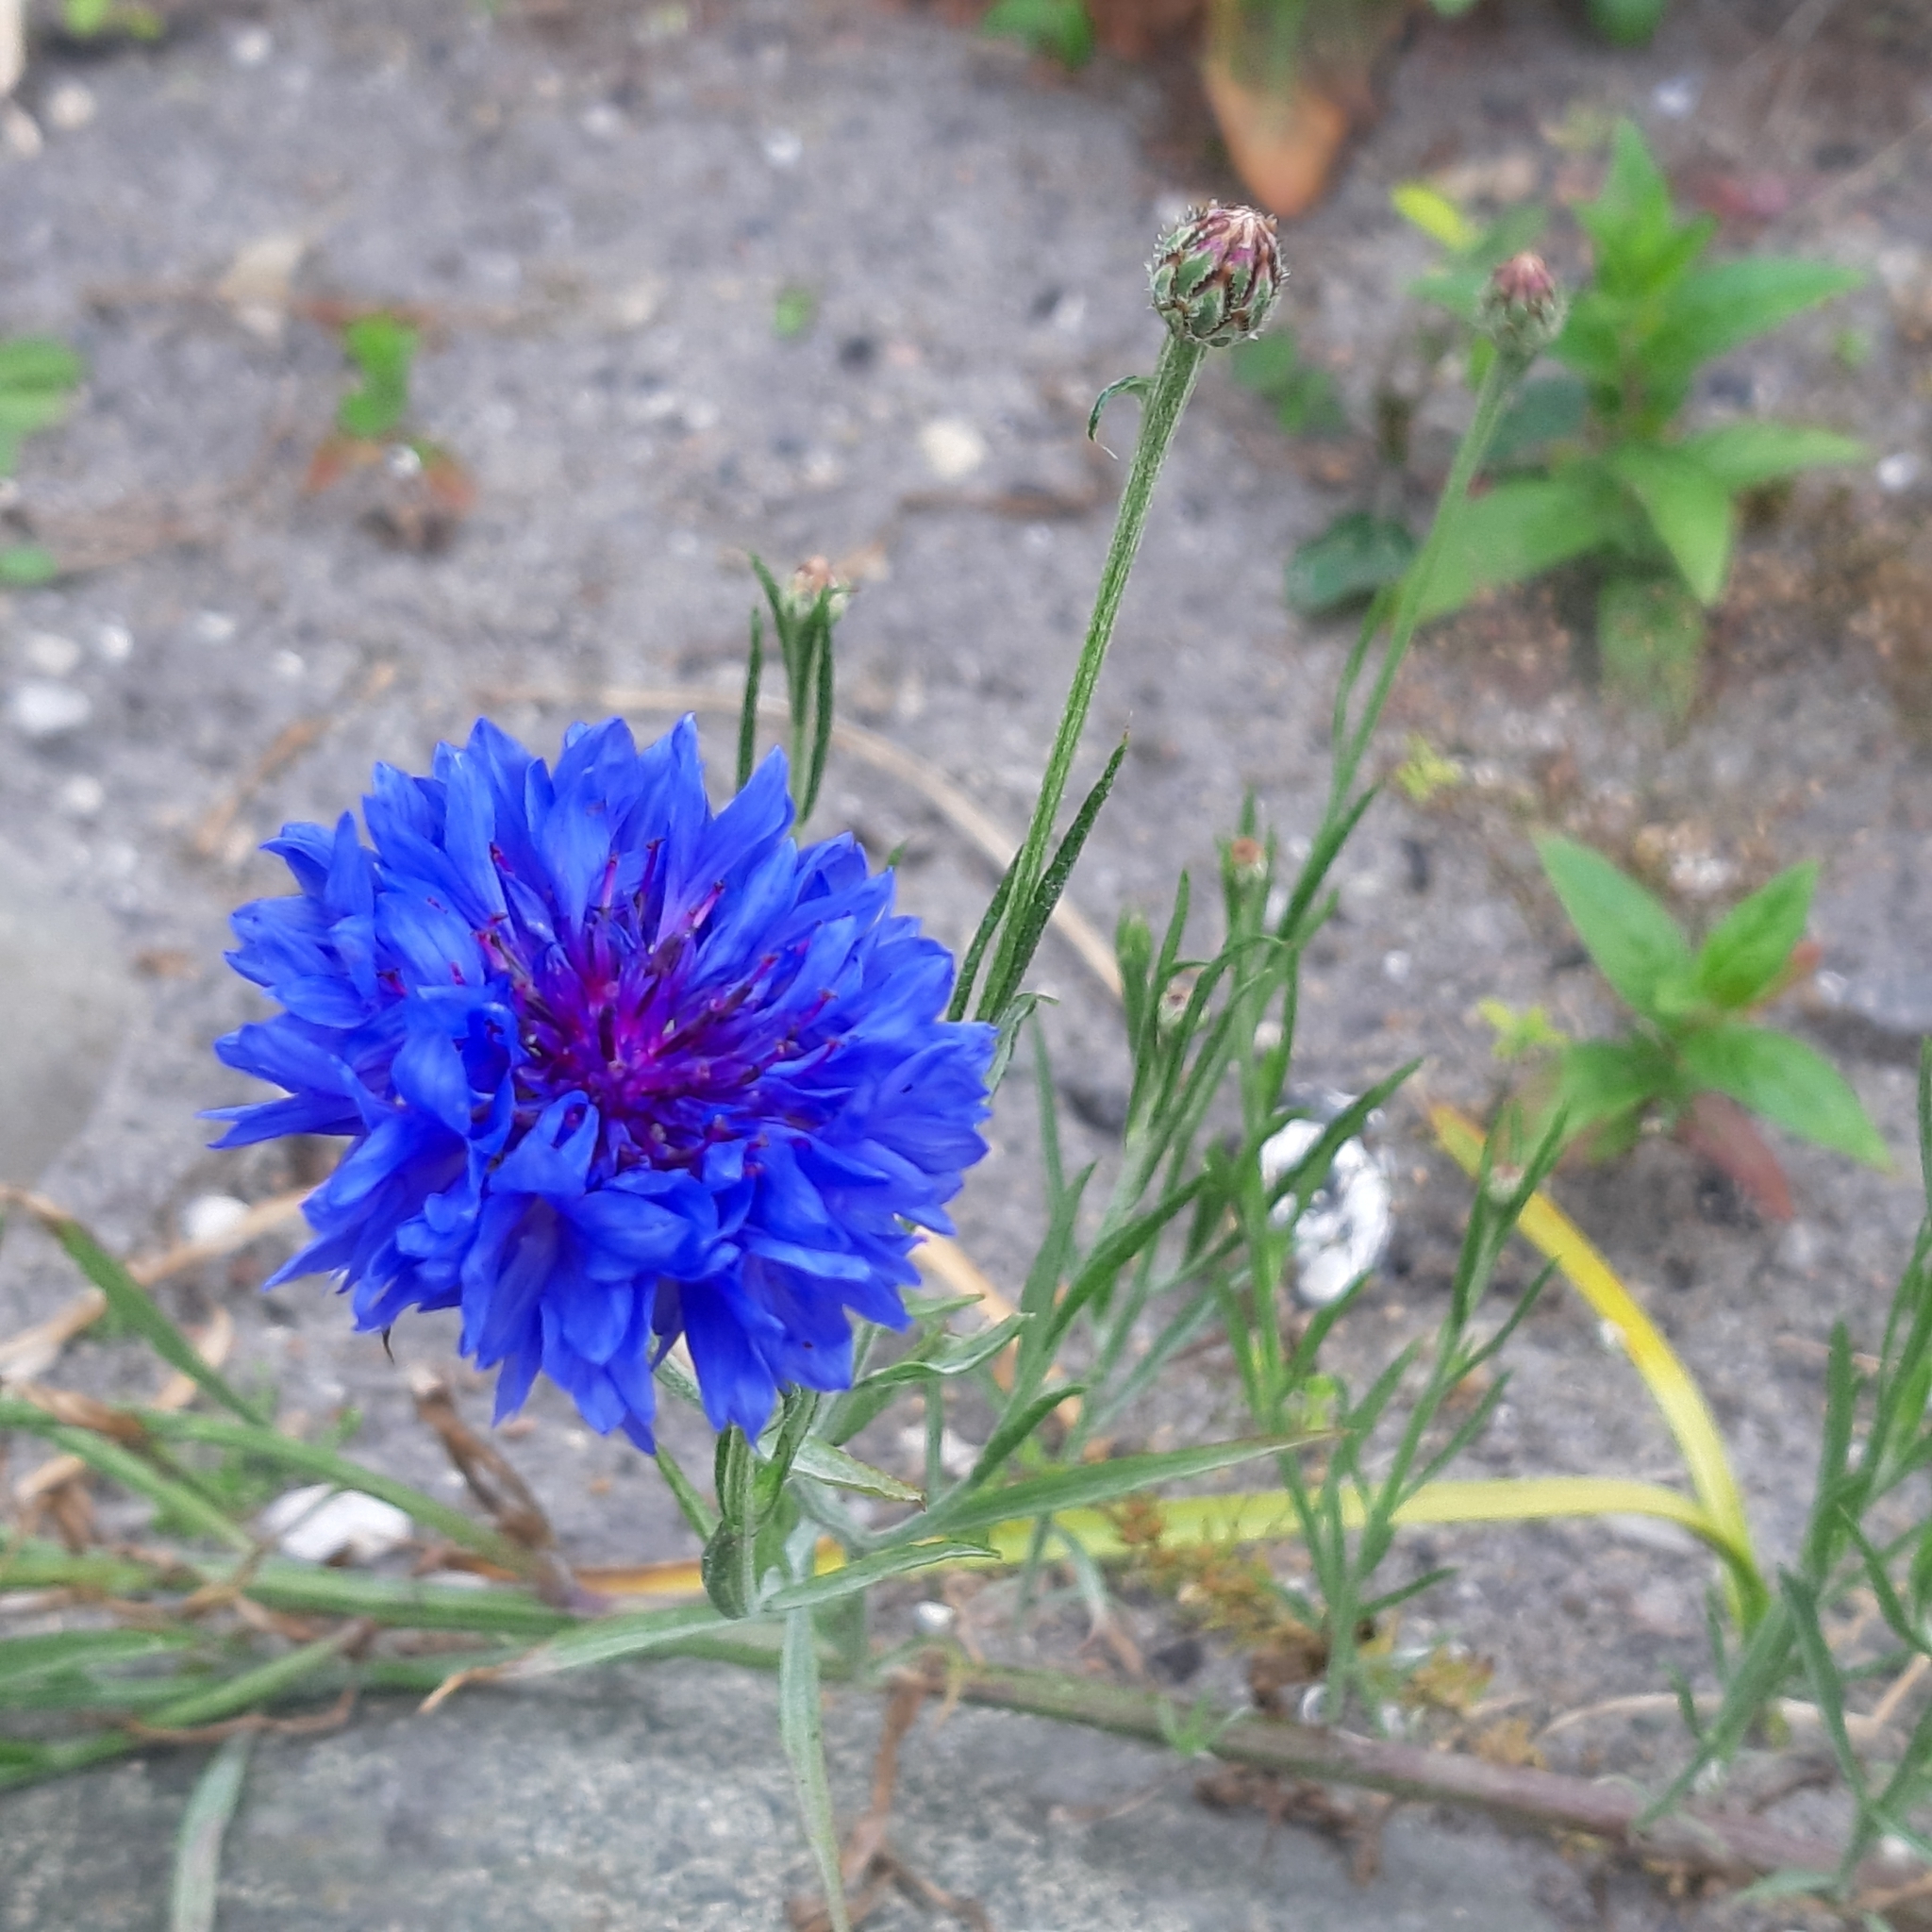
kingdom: Plantae
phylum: Tracheophyta
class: Magnoliopsida
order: Asterales
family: Asteraceae
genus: Centaurea
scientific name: Centaurea cyanus
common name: Cornflower
